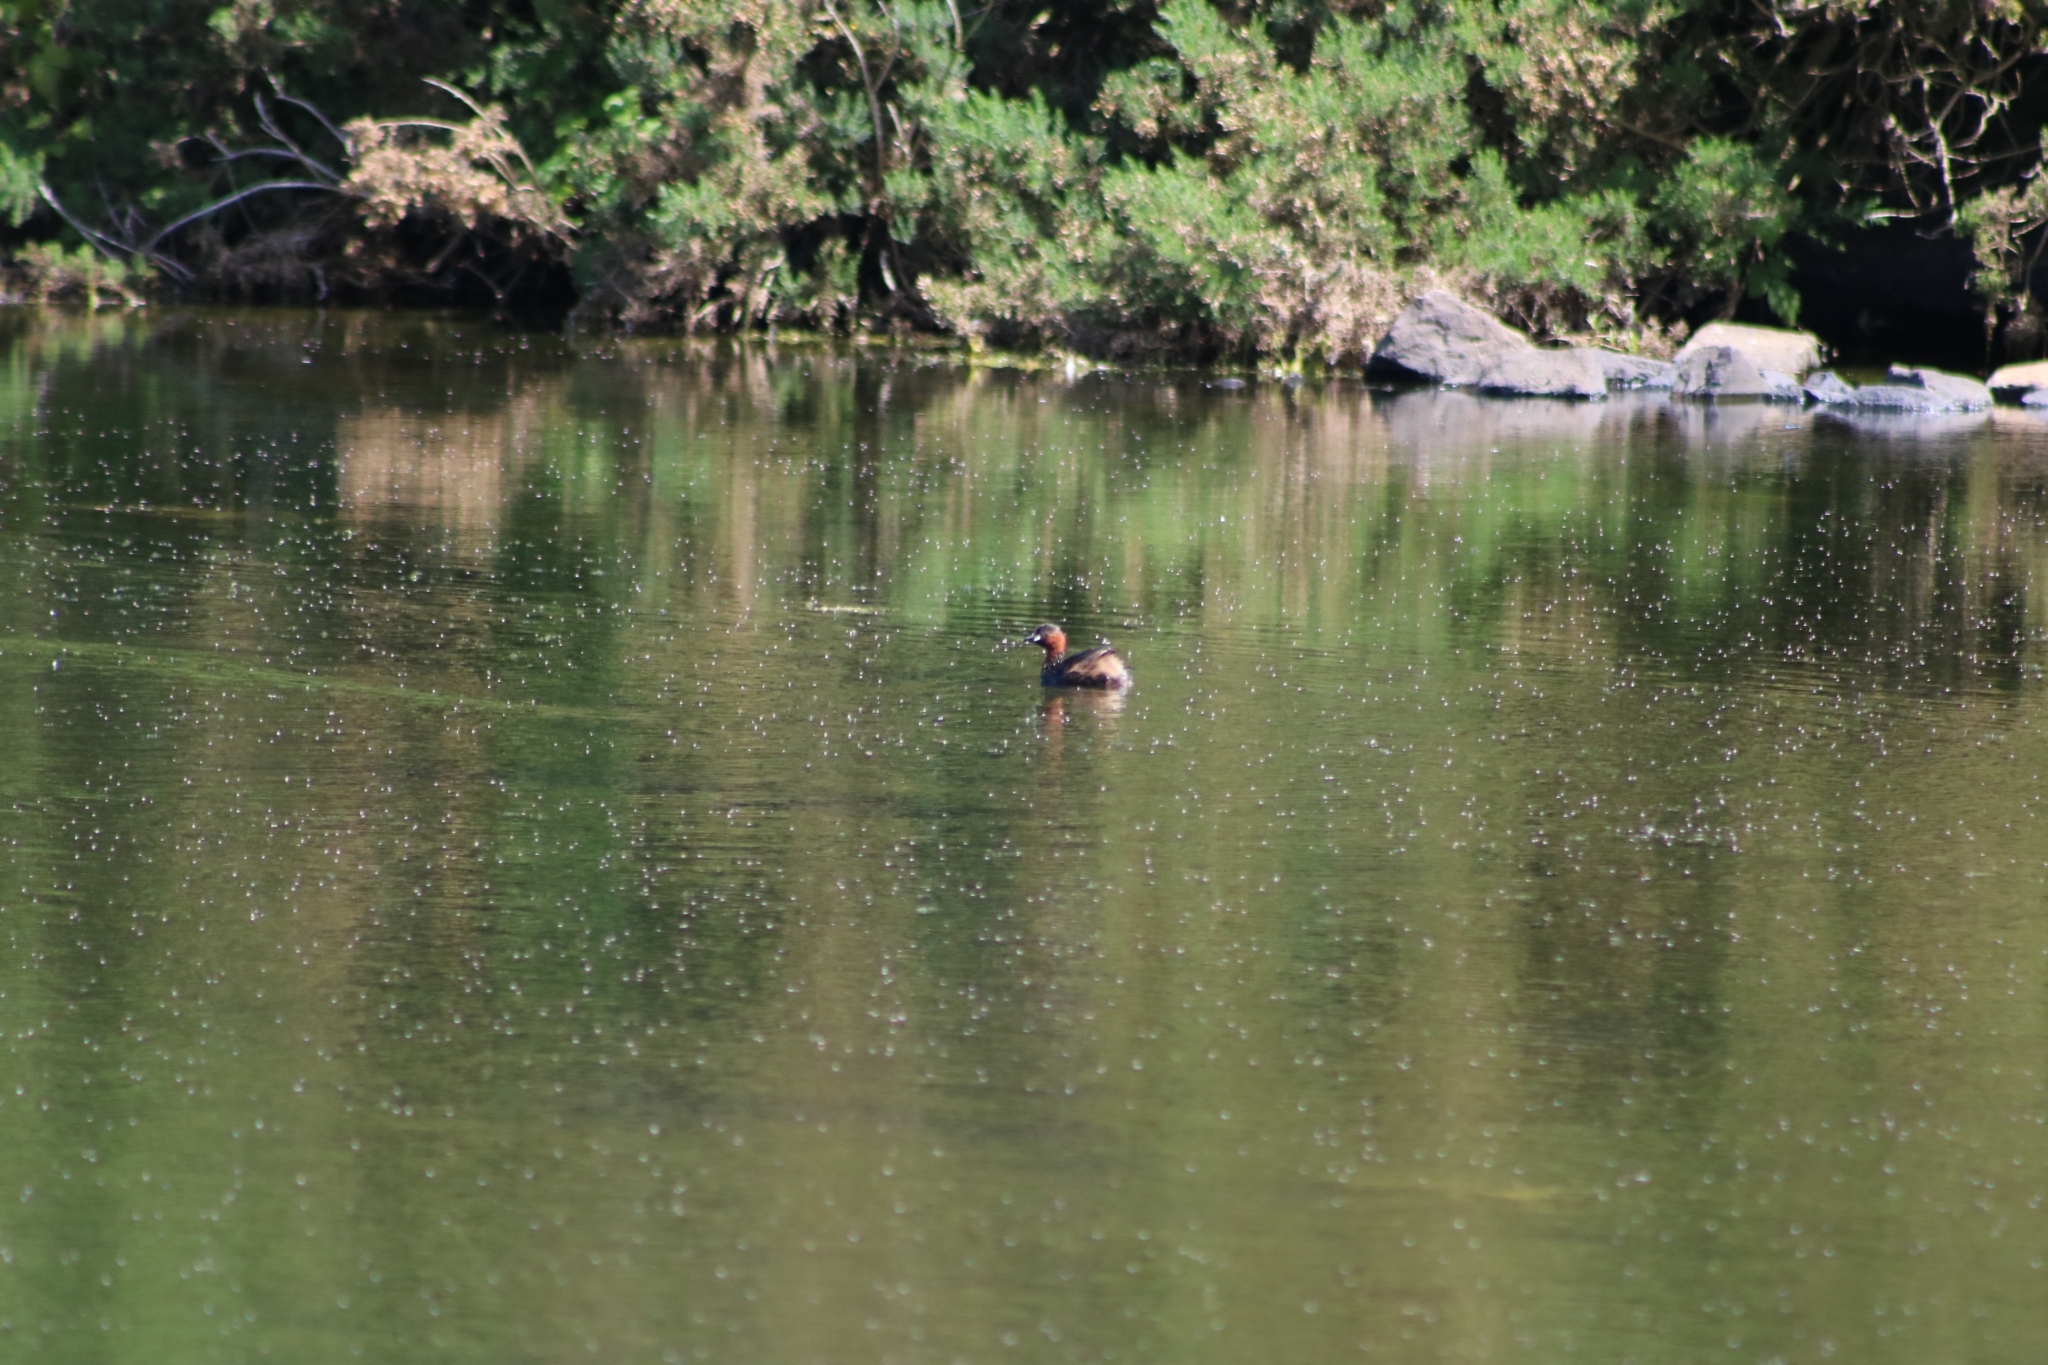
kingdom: Animalia
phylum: Chordata
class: Aves
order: Podicipediformes
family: Podicipedidae
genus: Tachybaptus
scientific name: Tachybaptus ruficollis
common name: Little grebe
